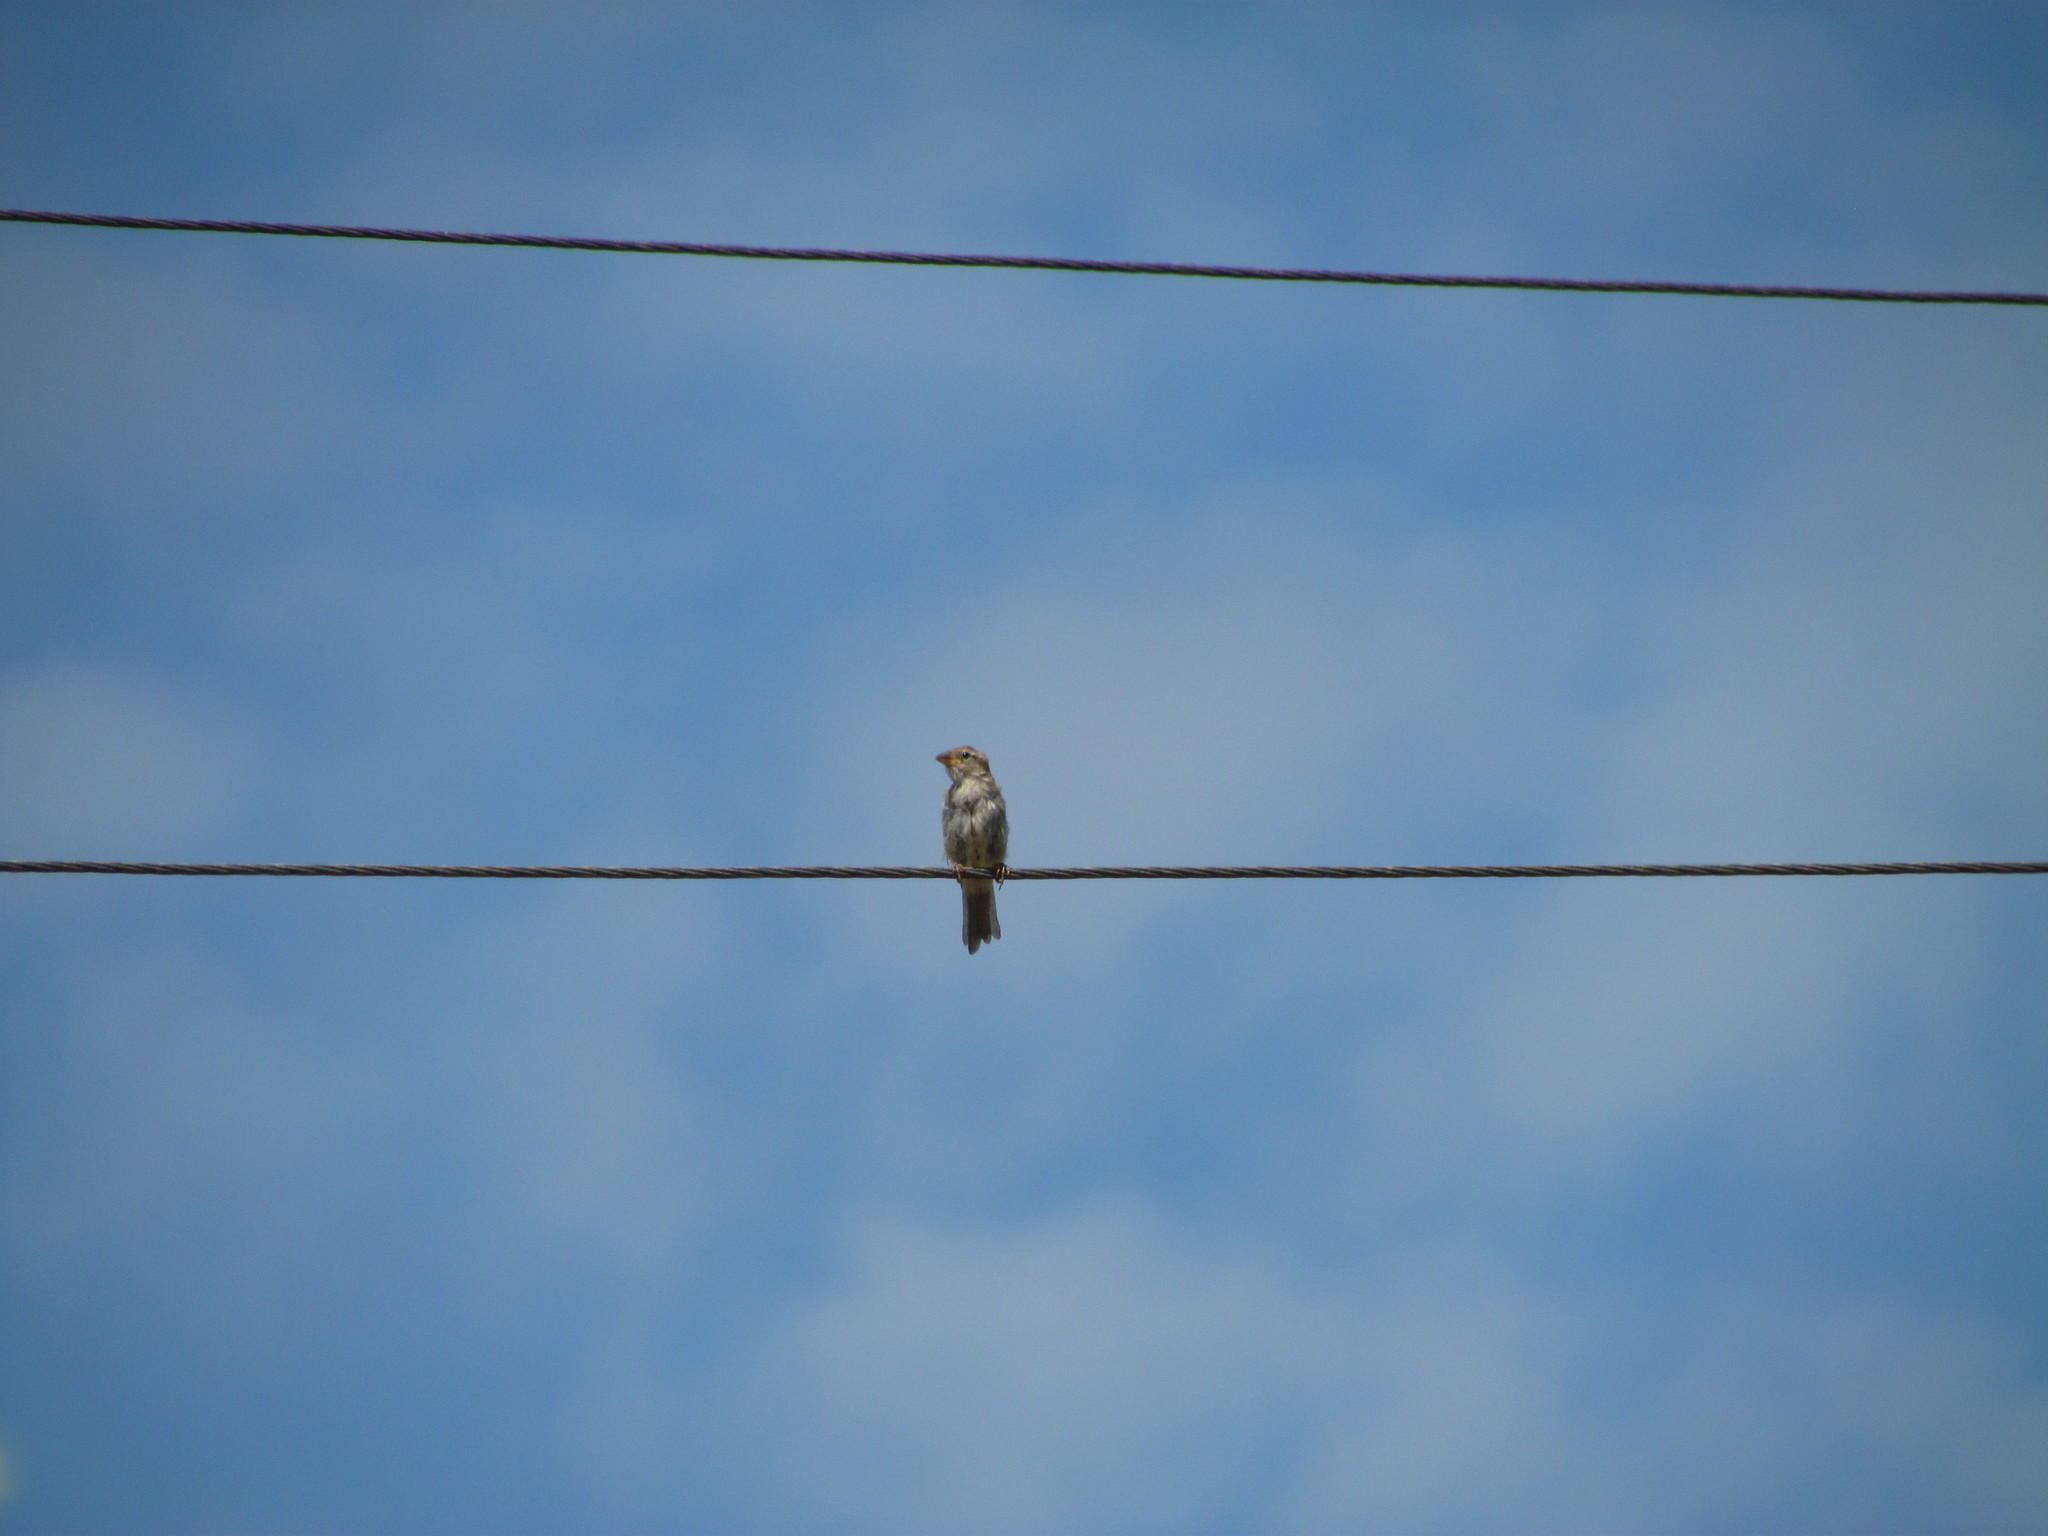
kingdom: Animalia
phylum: Chordata
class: Aves
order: Passeriformes
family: Passeridae
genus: Passer
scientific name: Passer domesticus
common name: House sparrow
